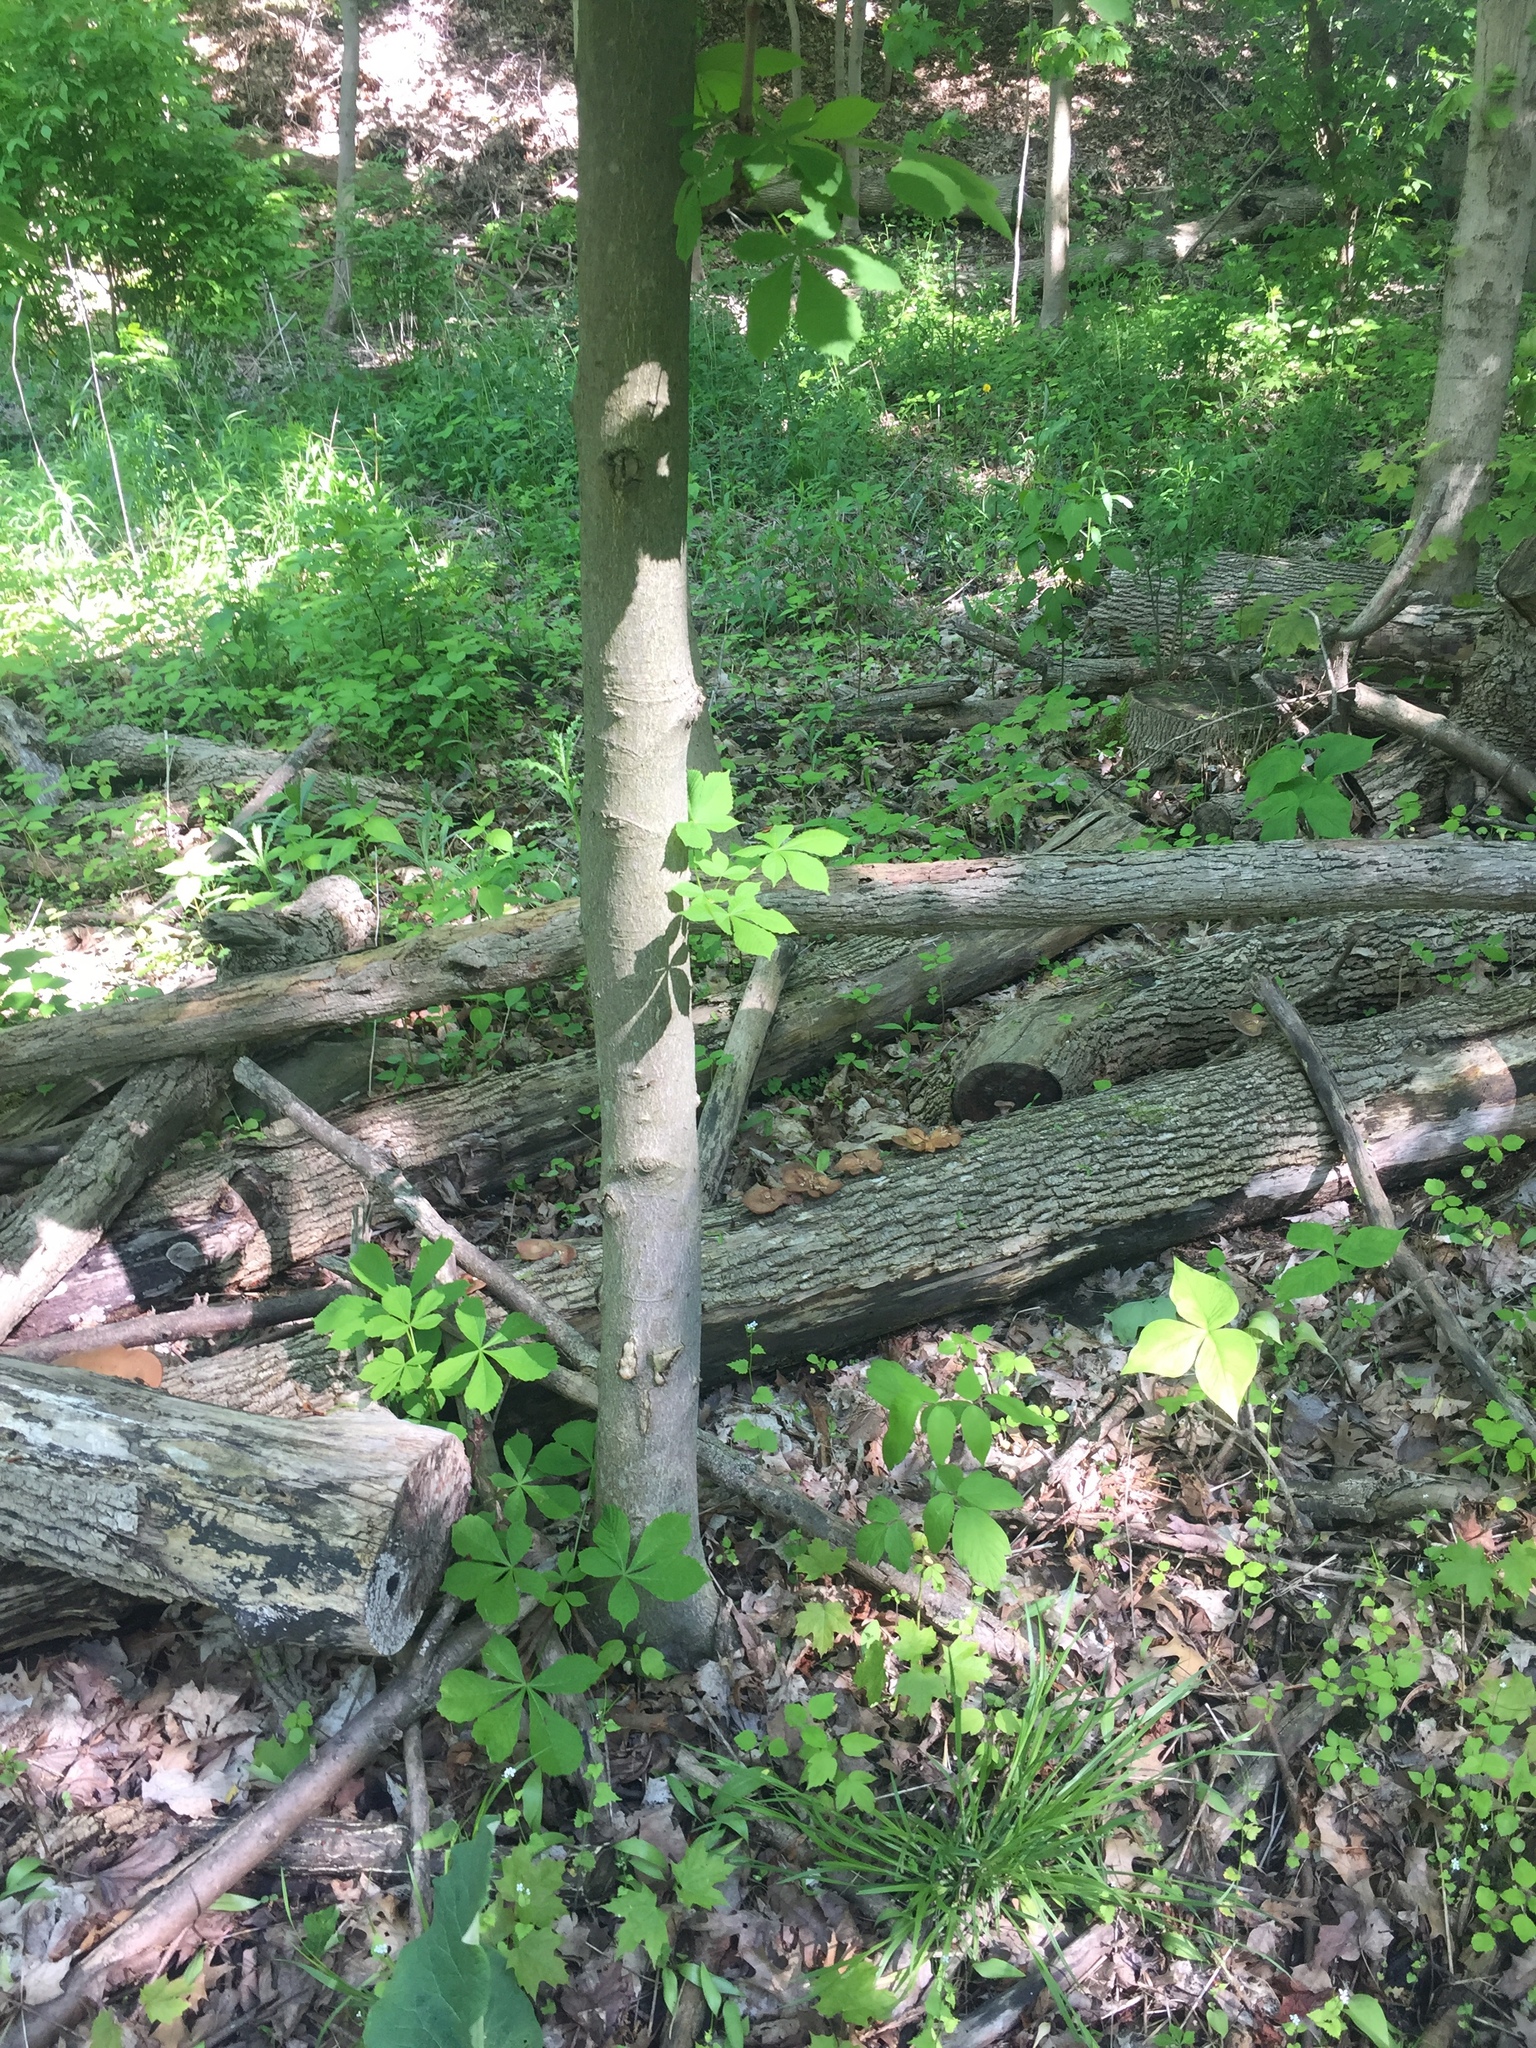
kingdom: Plantae
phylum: Tracheophyta
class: Magnoliopsida
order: Sapindales
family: Sapindaceae
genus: Aesculus
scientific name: Aesculus hippocastanum
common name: Horse-chestnut
